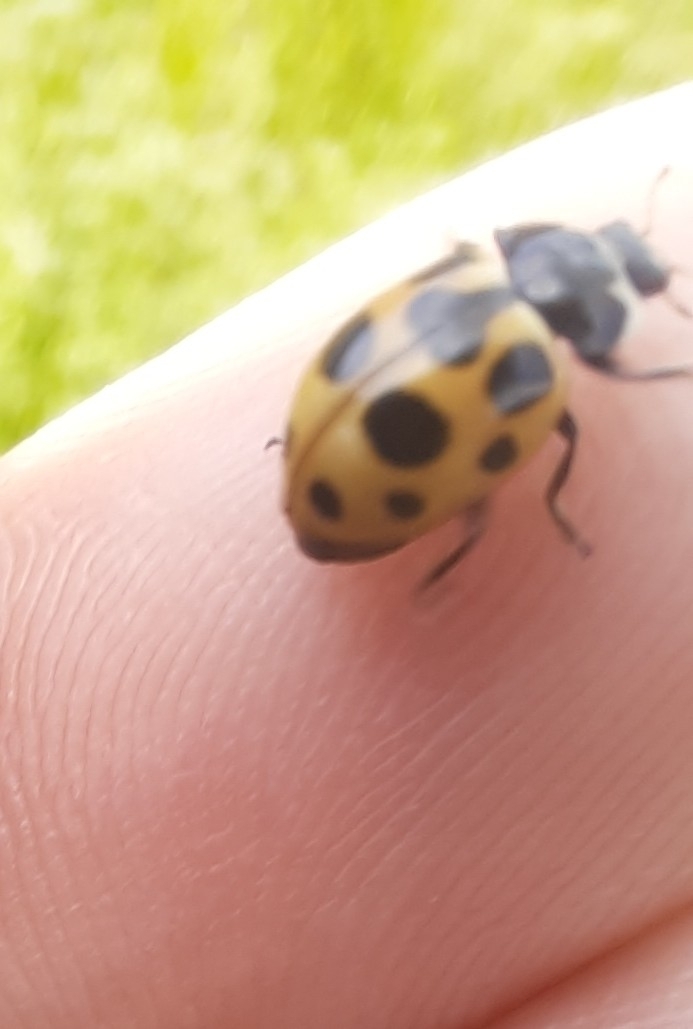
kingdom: Animalia
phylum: Arthropoda
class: Insecta
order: Coleoptera
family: Coccinellidae
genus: Ceratomegilla
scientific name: Ceratomegilla notata
